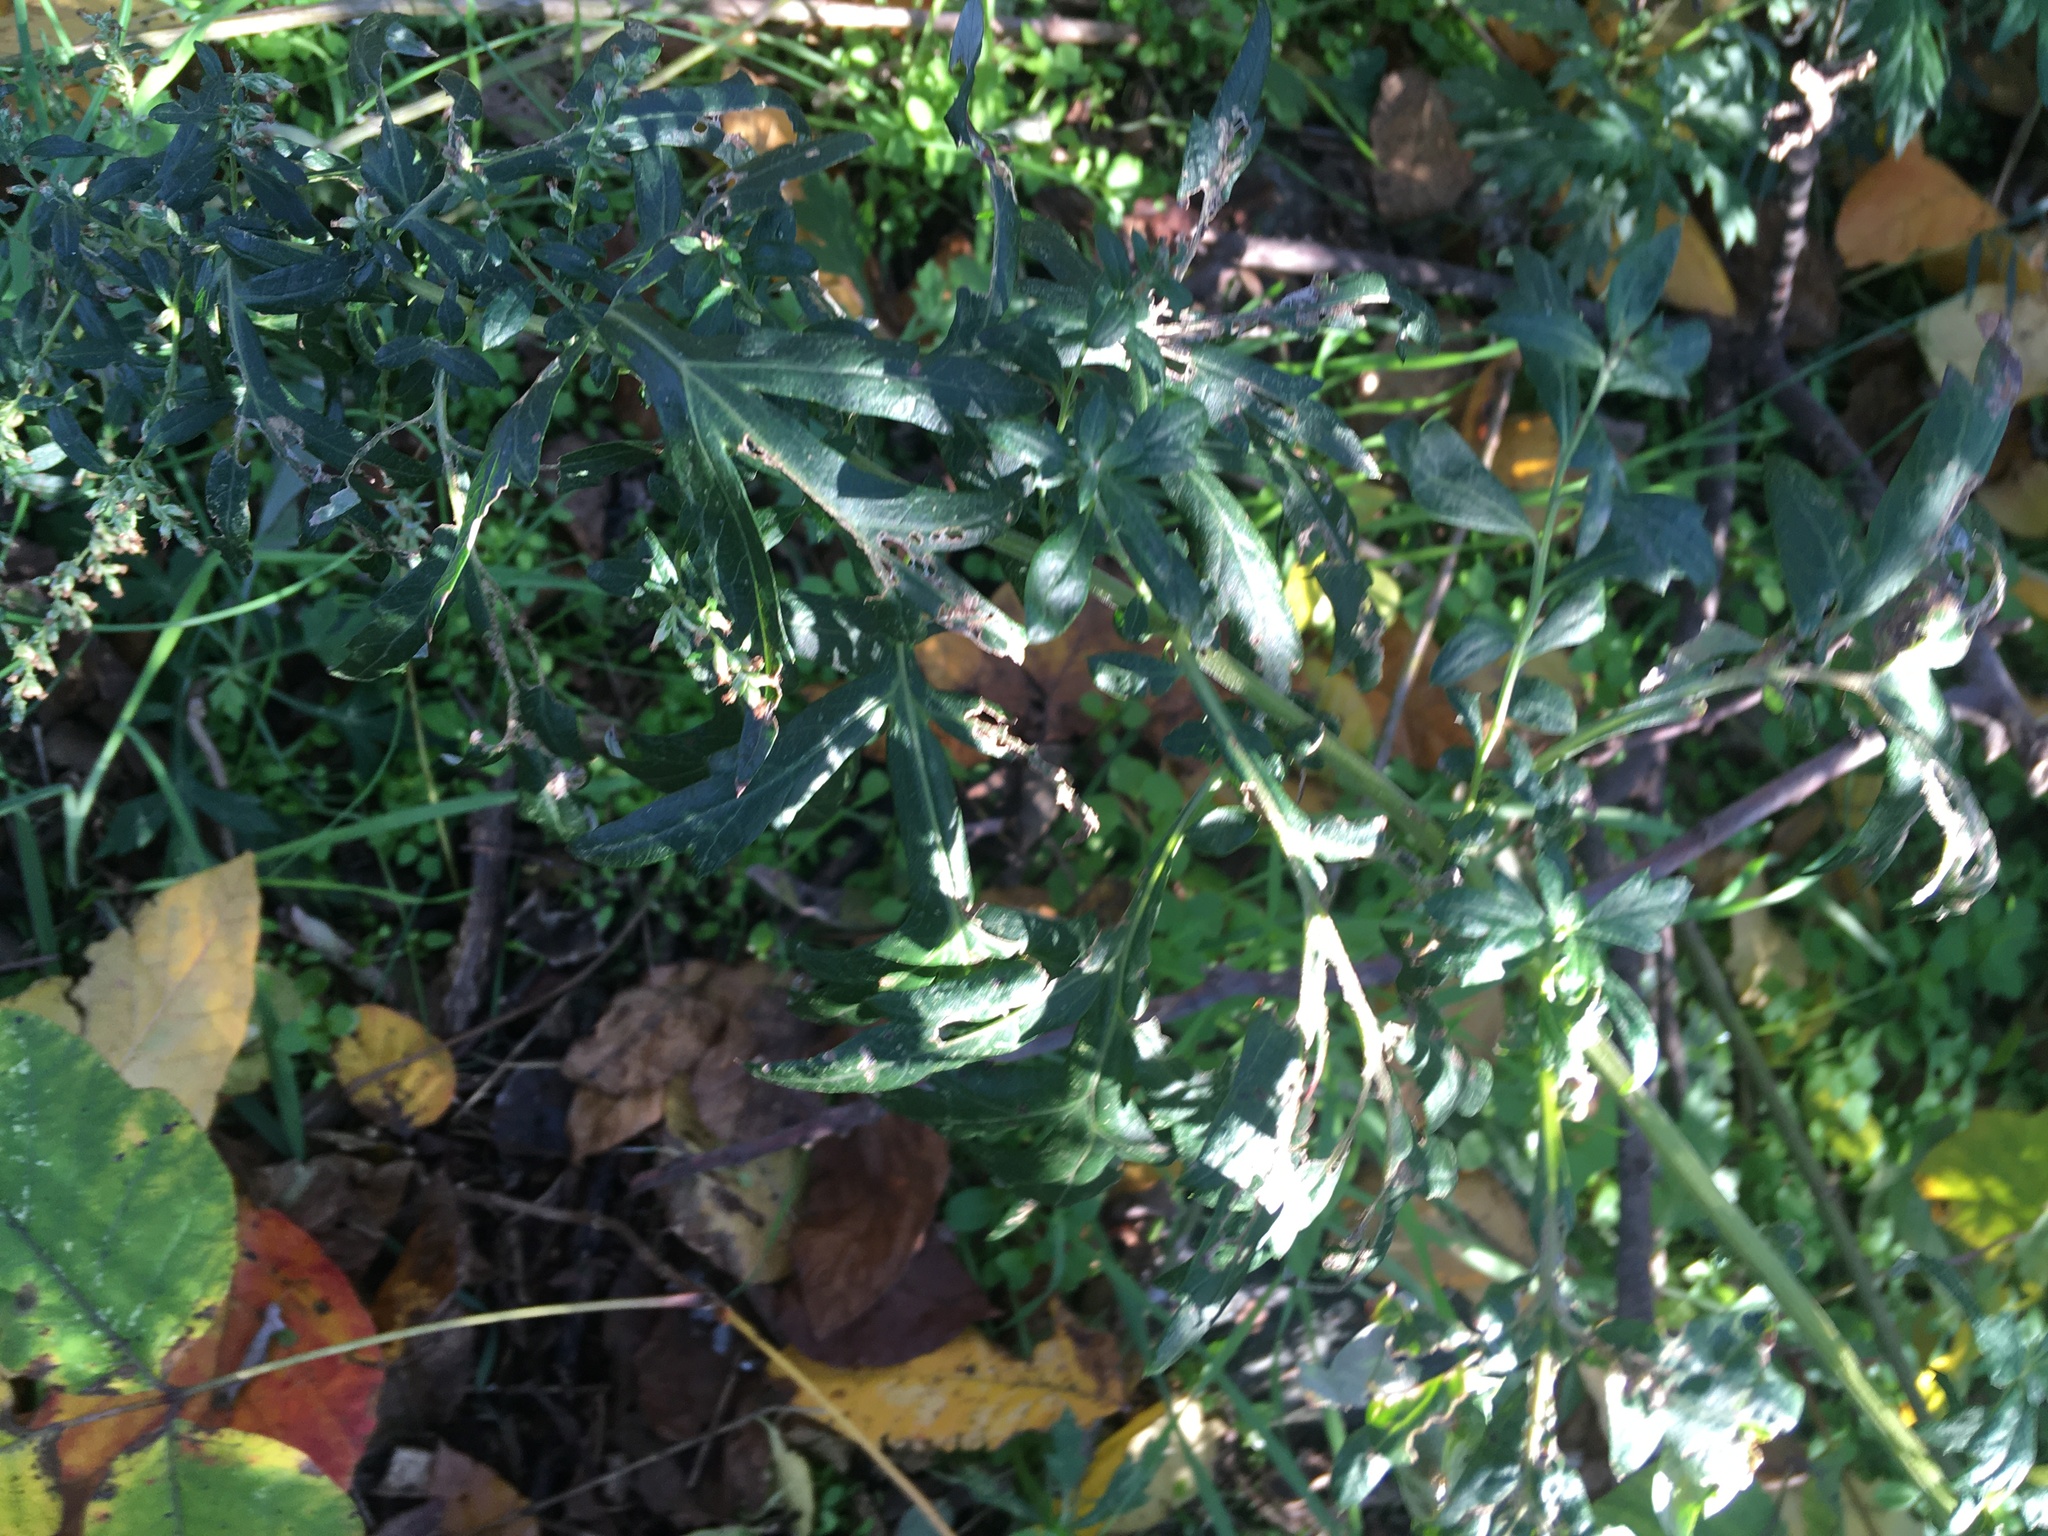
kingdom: Plantae
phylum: Tracheophyta
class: Magnoliopsida
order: Asterales
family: Asteraceae
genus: Artemisia
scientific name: Artemisia vulgaris
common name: Mugwort
